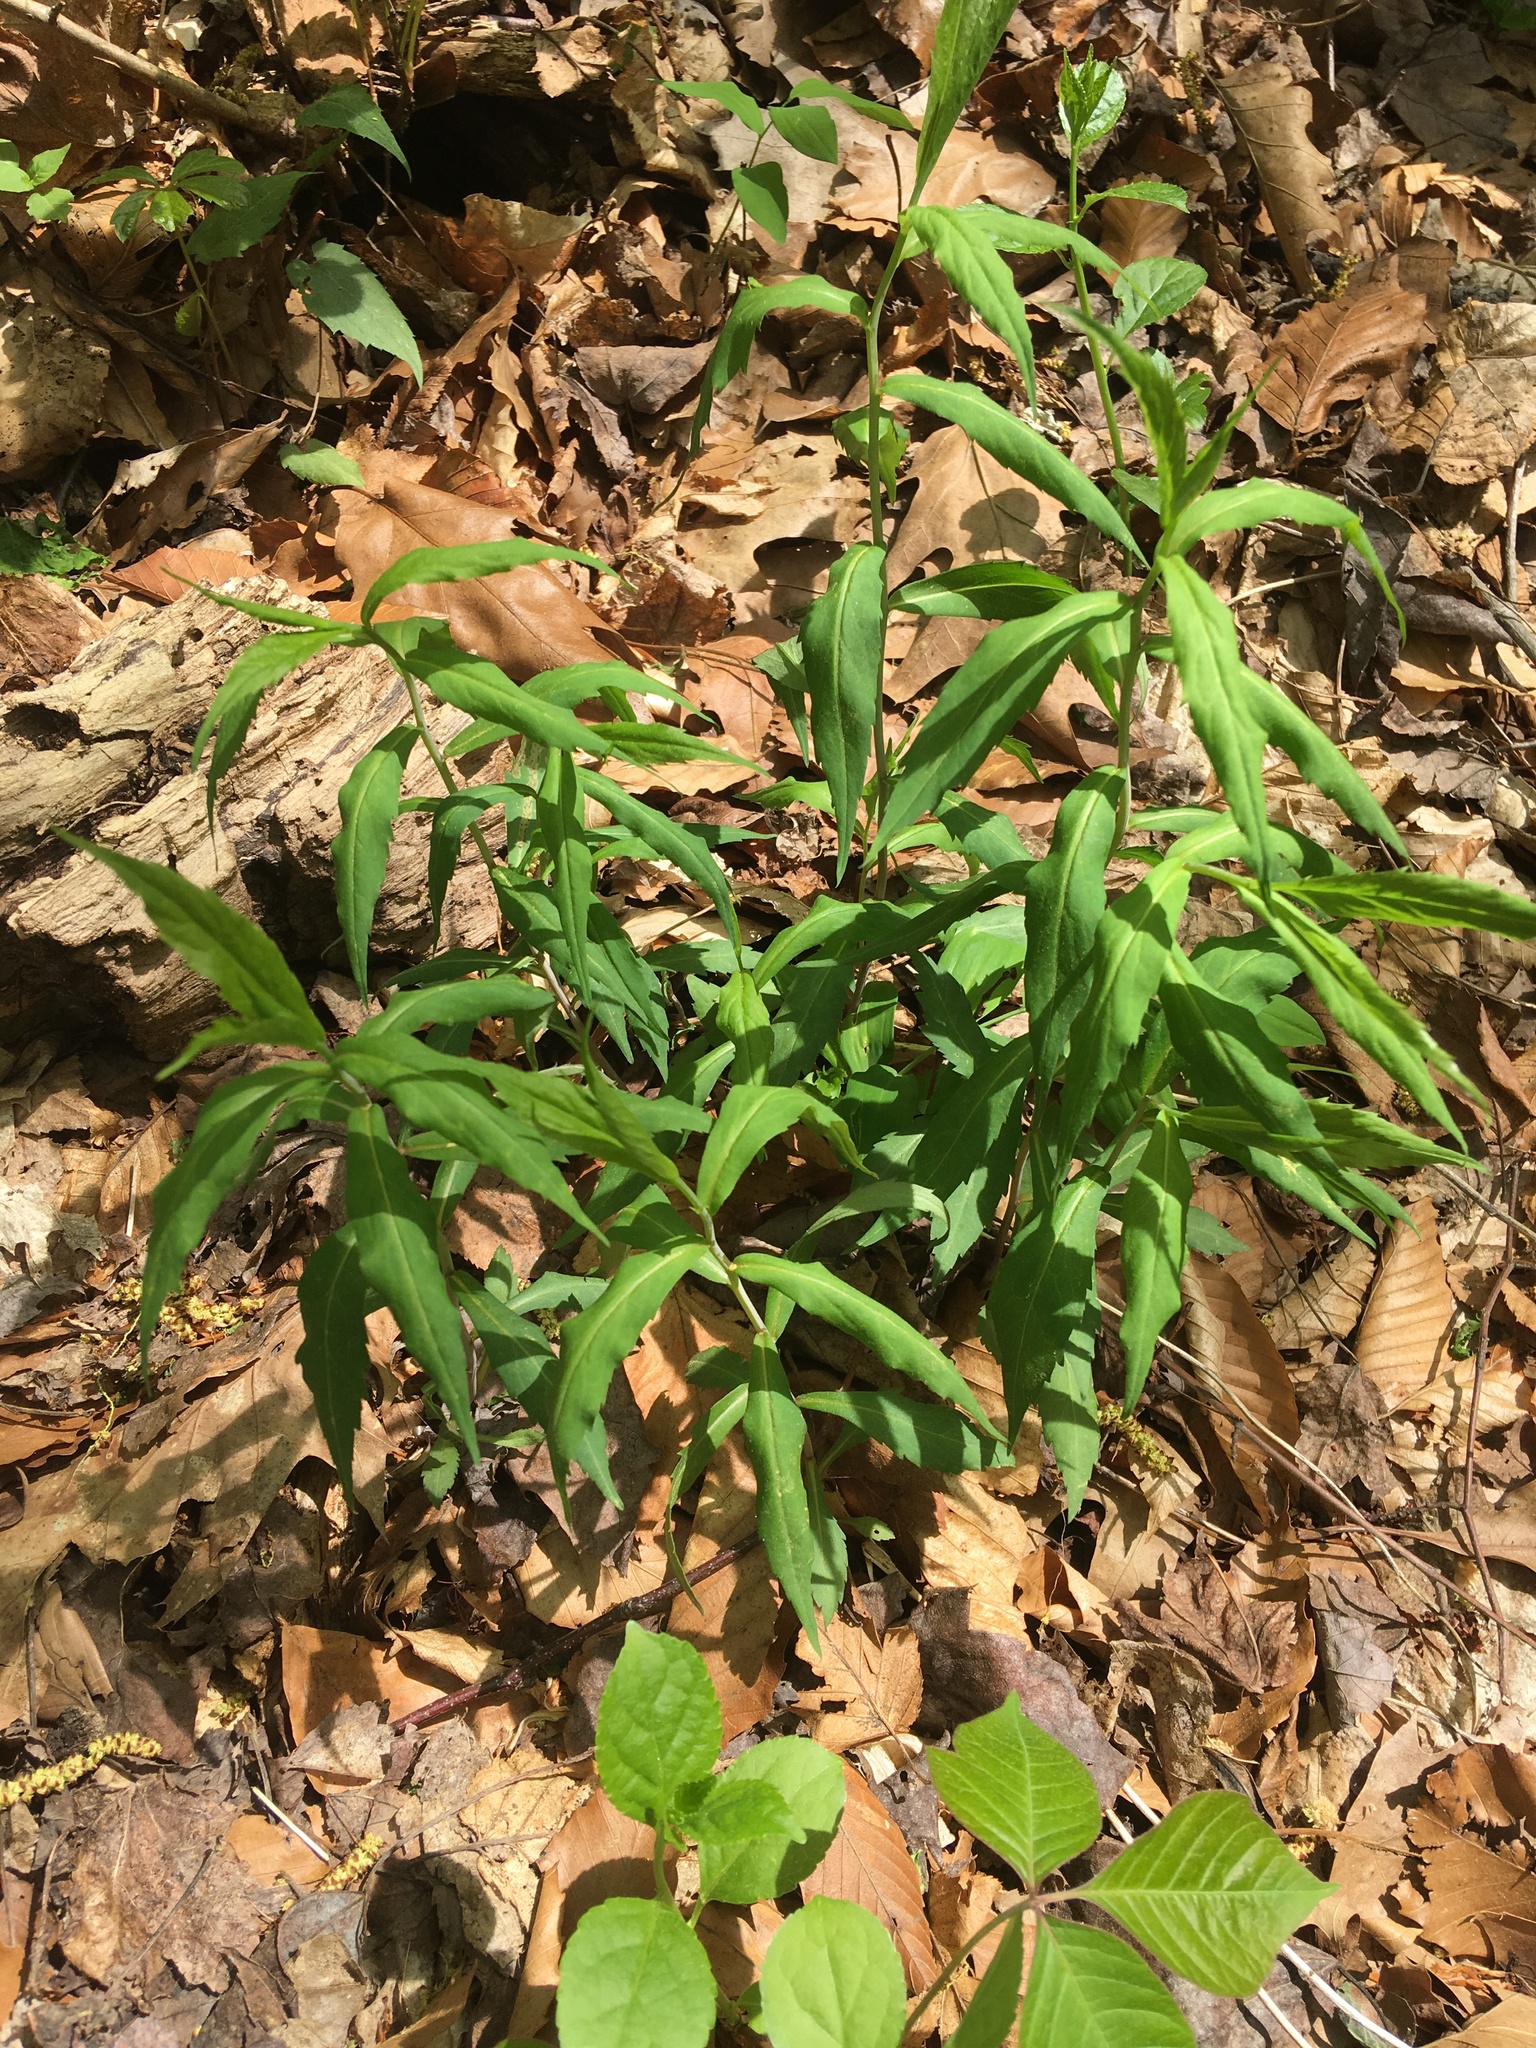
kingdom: Plantae
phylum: Tracheophyta
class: Magnoliopsida
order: Asterales
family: Asteraceae
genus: Solidago
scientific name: Solidago caesia
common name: Woodland goldenrod
